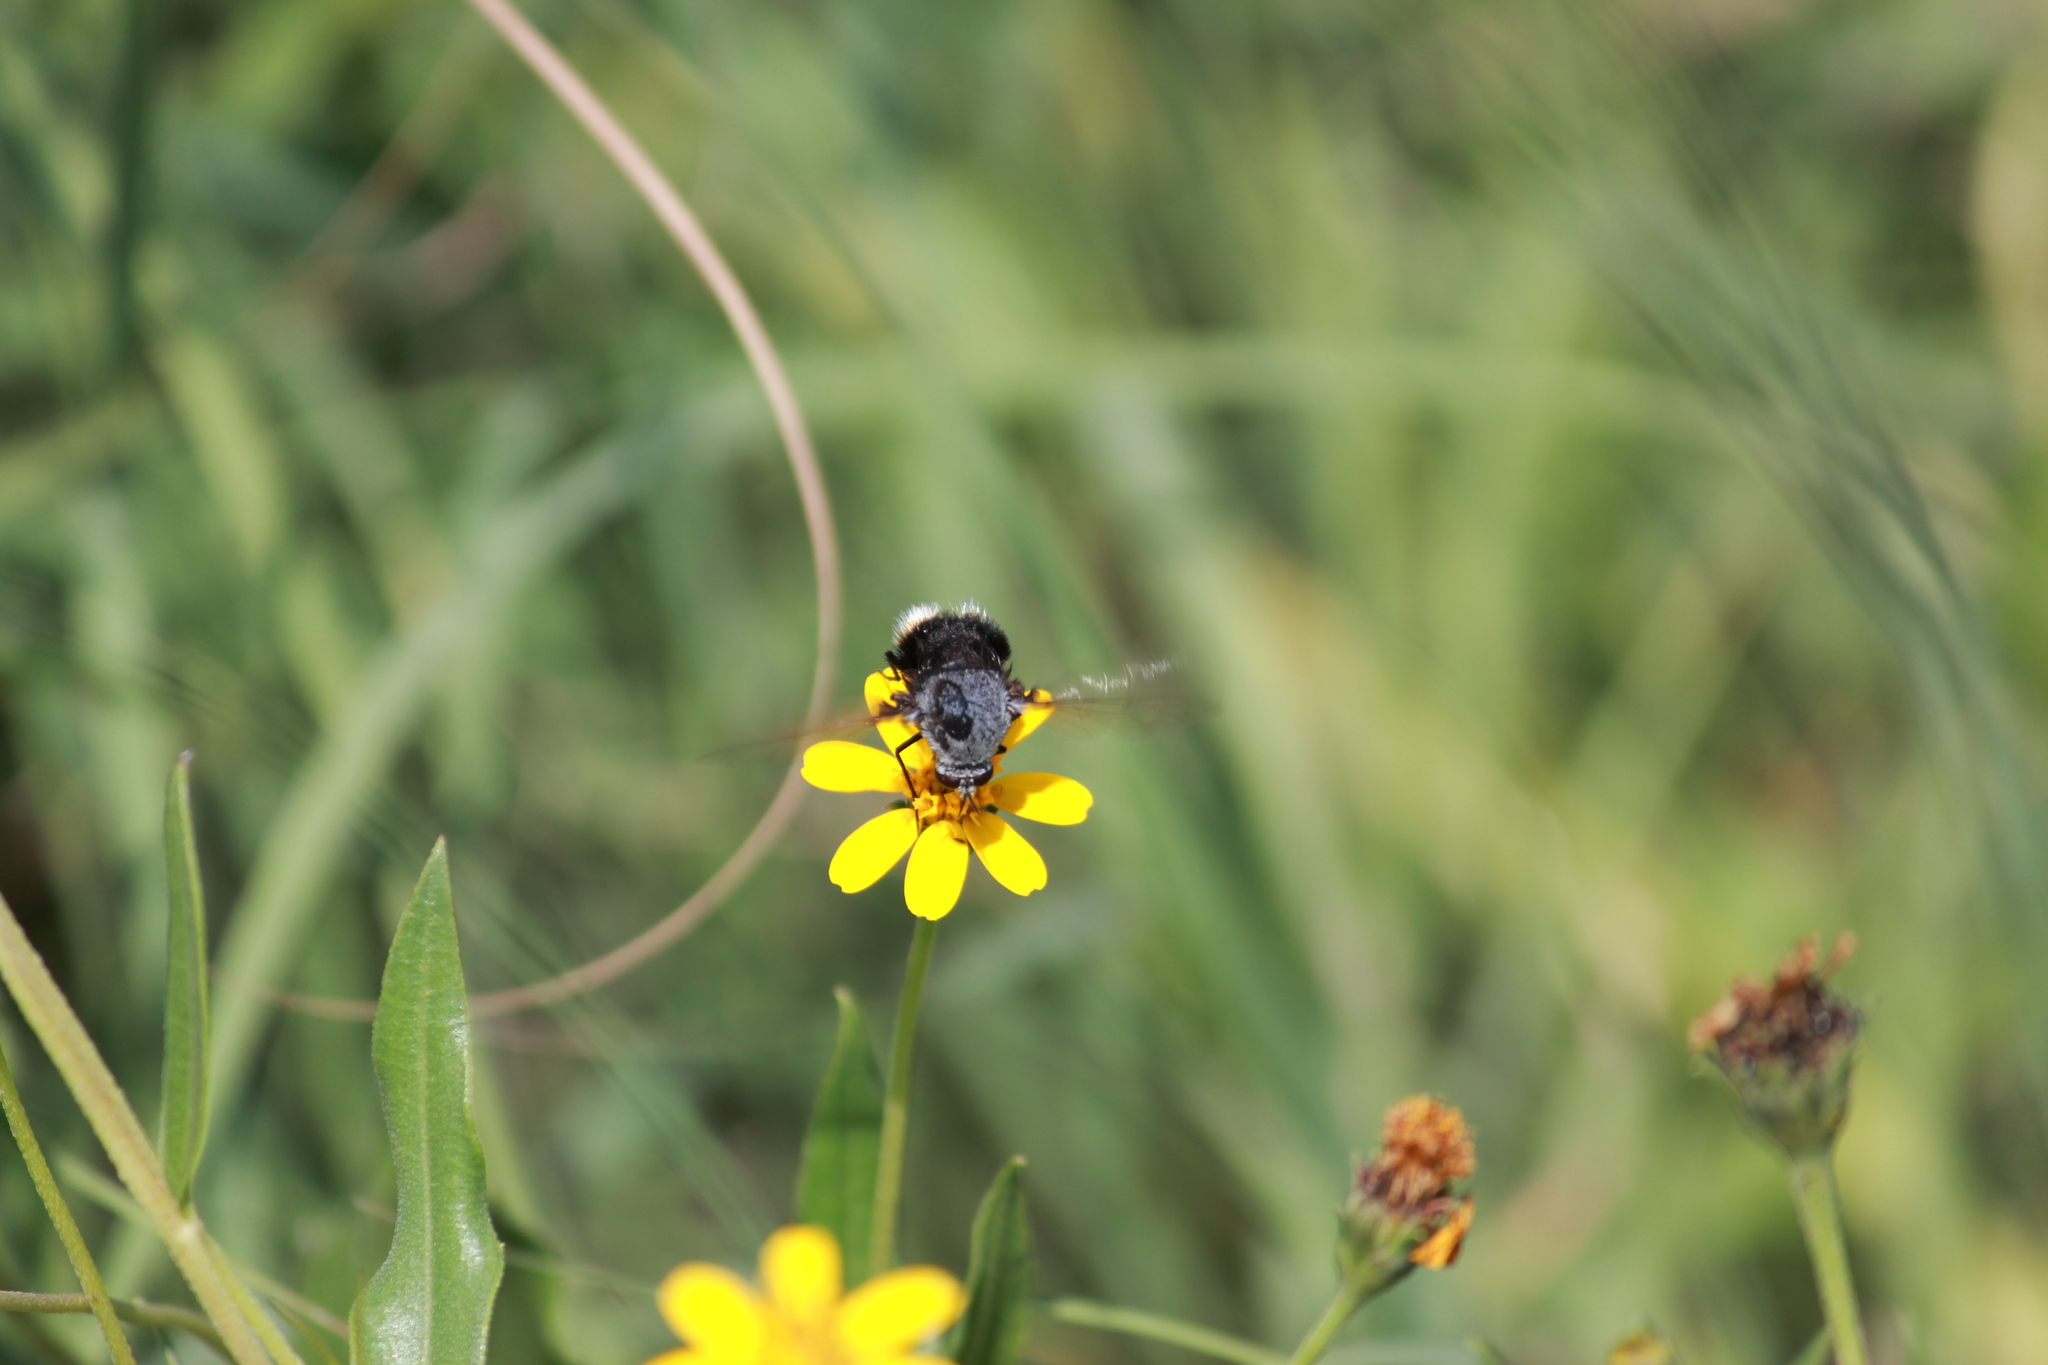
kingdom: Animalia
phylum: Arthropoda
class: Insecta
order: Diptera
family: Bombyliidae
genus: Bombomyia
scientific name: Bombomyia discoidea
